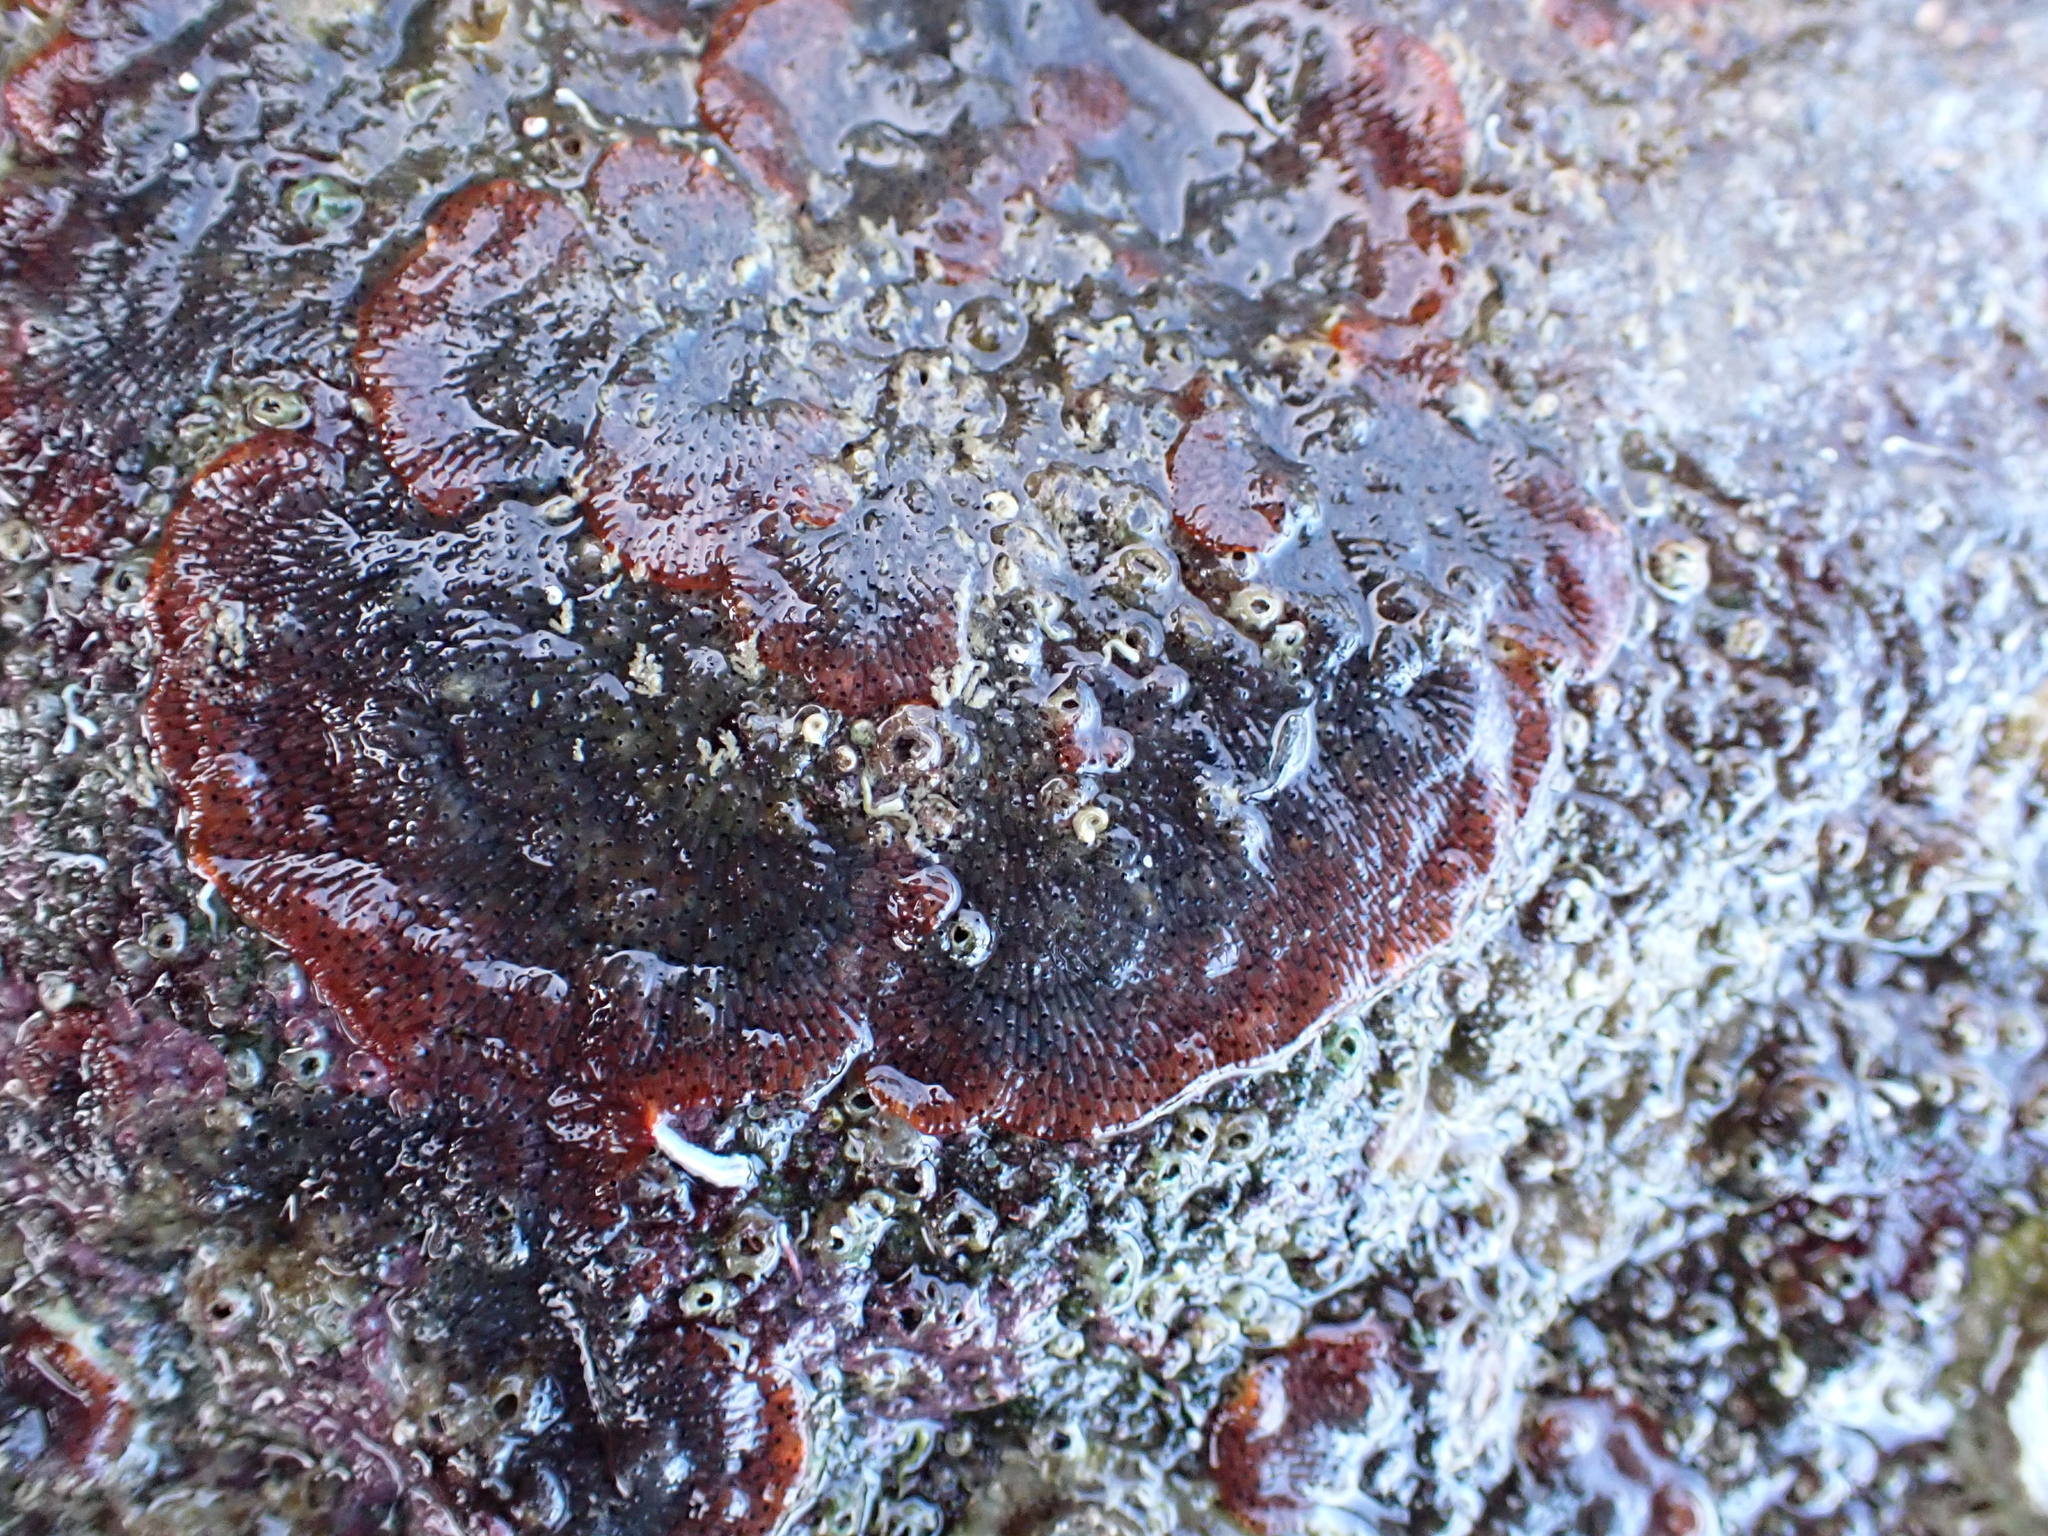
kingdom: Animalia
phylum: Bryozoa
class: Gymnolaemata
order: Cheilostomatida
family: Watersiporidae
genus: Watersipora
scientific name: Watersipora subatra
